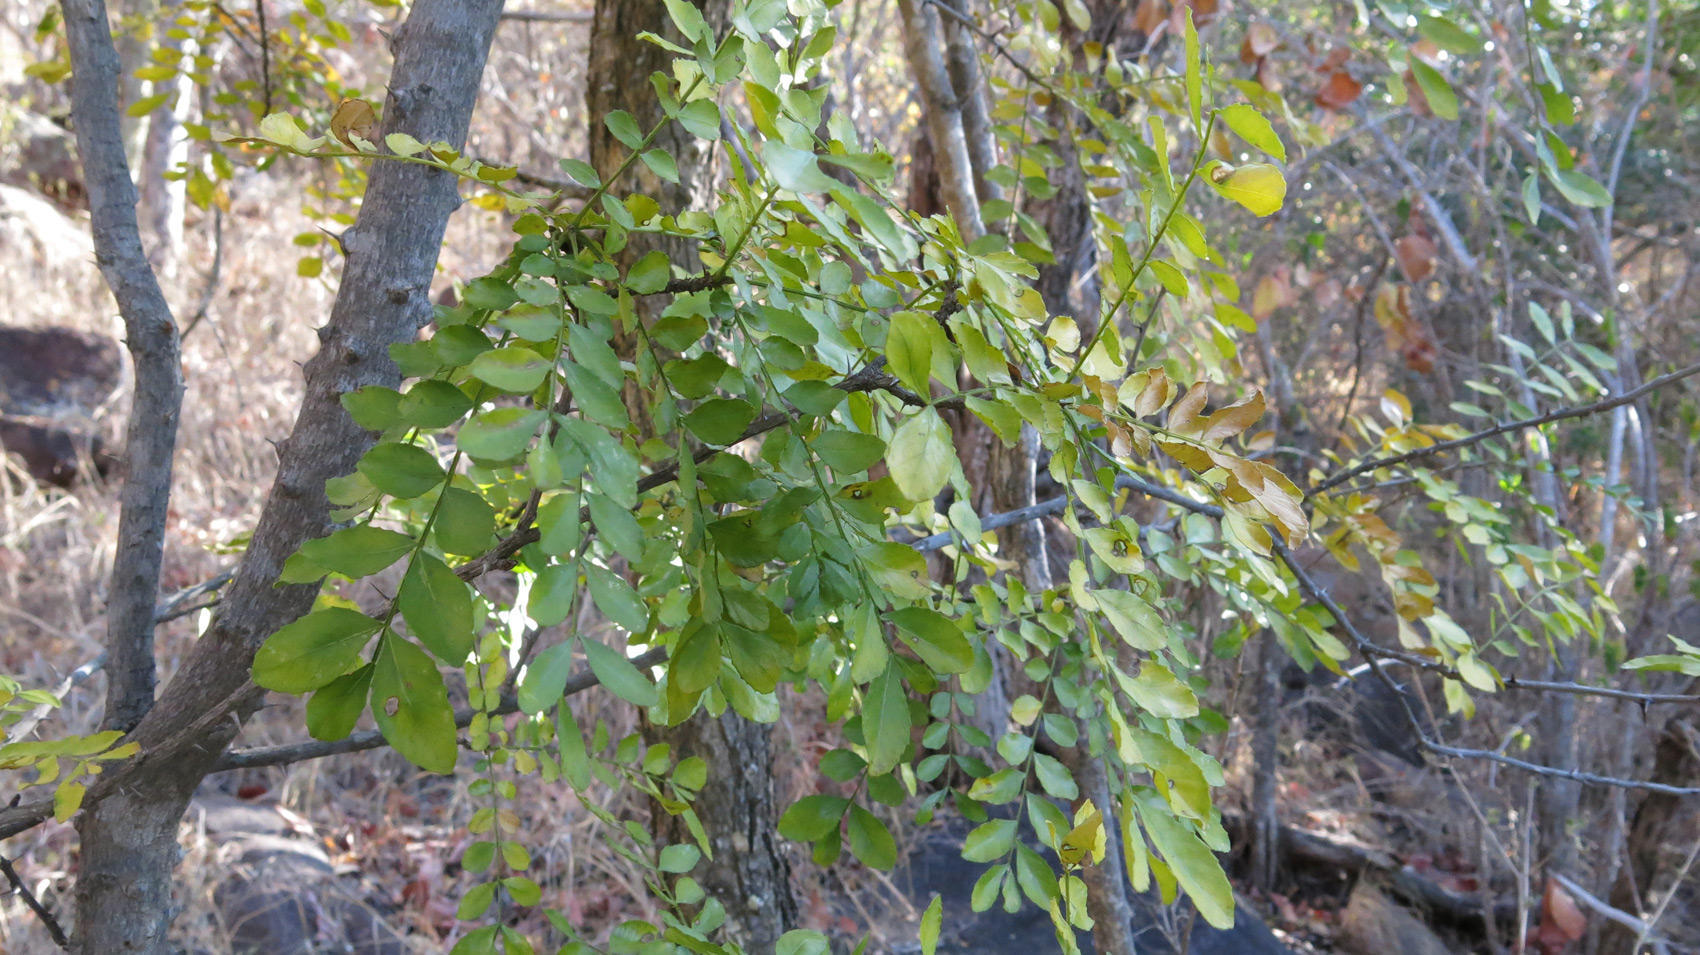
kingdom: Plantae
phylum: Tracheophyta
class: Magnoliopsida
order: Sapindales
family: Rutaceae
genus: Zanthoxylum
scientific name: Zanthoxylum capense
